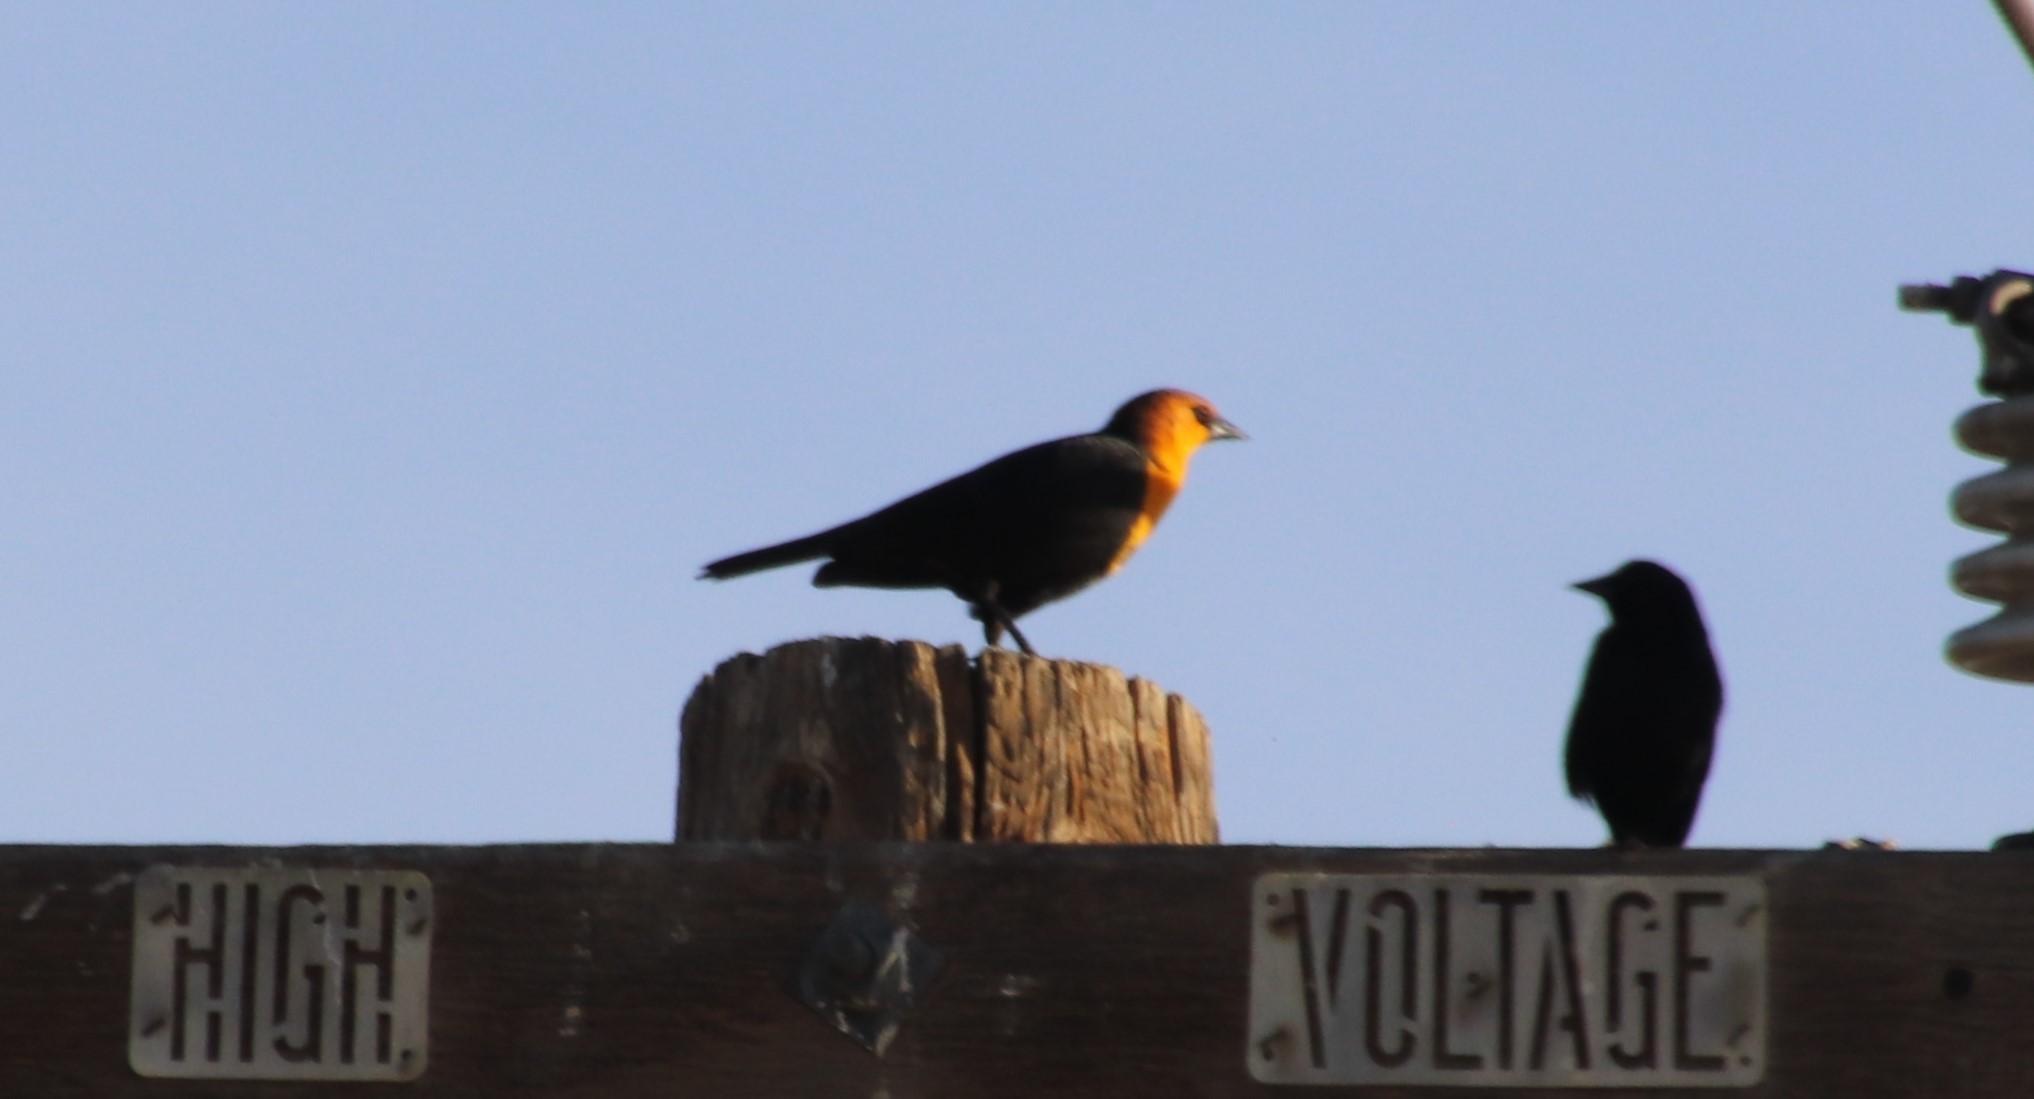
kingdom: Animalia
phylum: Chordata
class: Aves
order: Passeriformes
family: Icteridae
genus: Xanthocephalus
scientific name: Xanthocephalus xanthocephalus
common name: Yellow-headed blackbird
